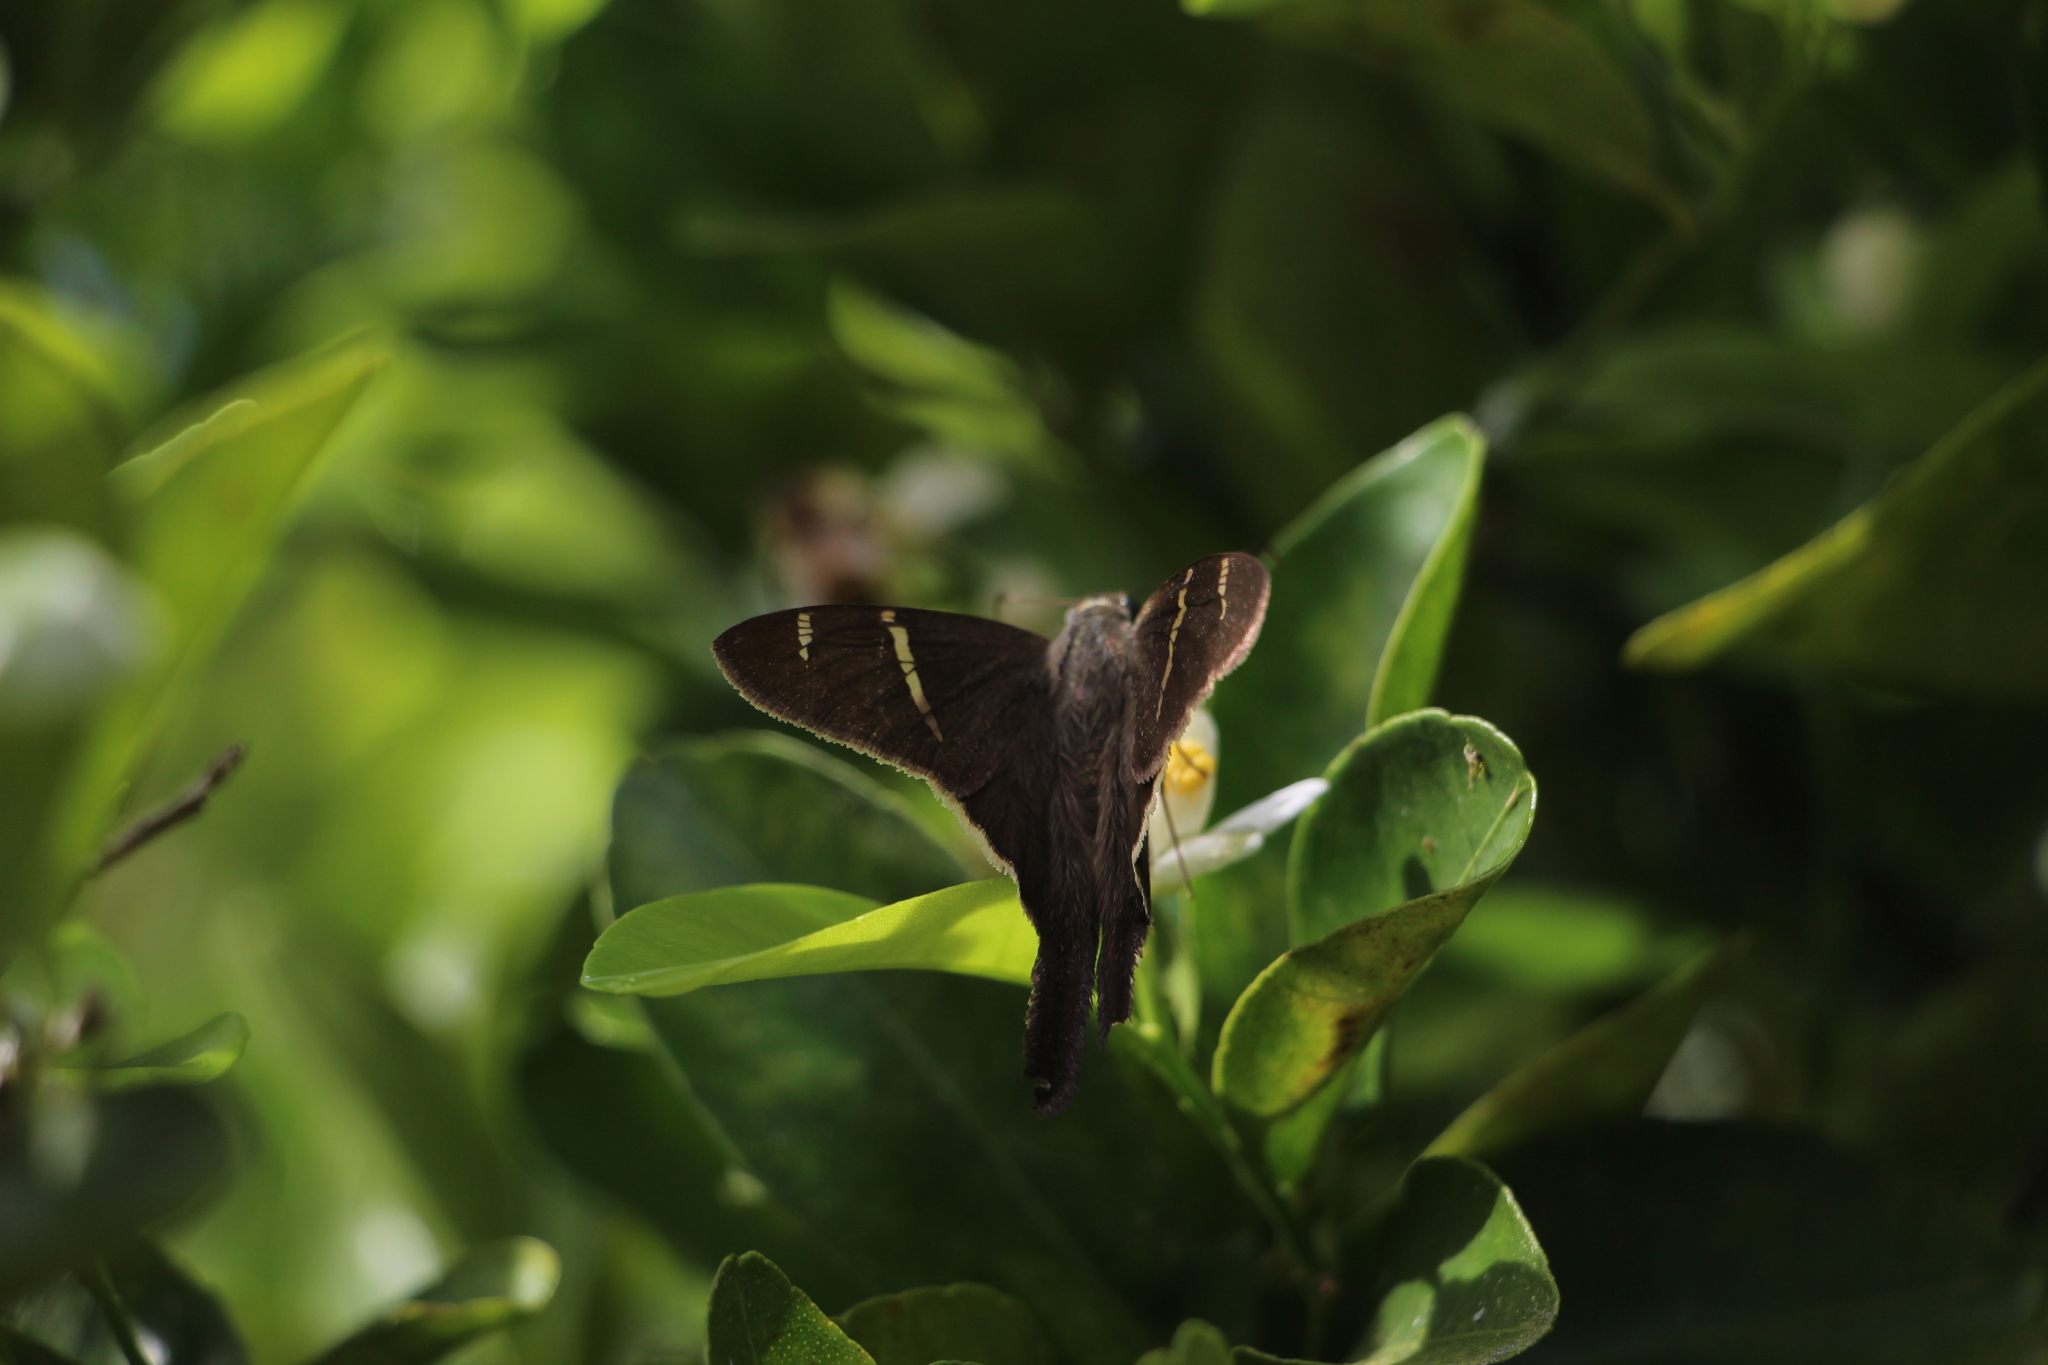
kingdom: Animalia
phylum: Arthropoda
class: Insecta
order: Lepidoptera
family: Hesperiidae
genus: Urbanus
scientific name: Urbanus tanna
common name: Tanna longtail
